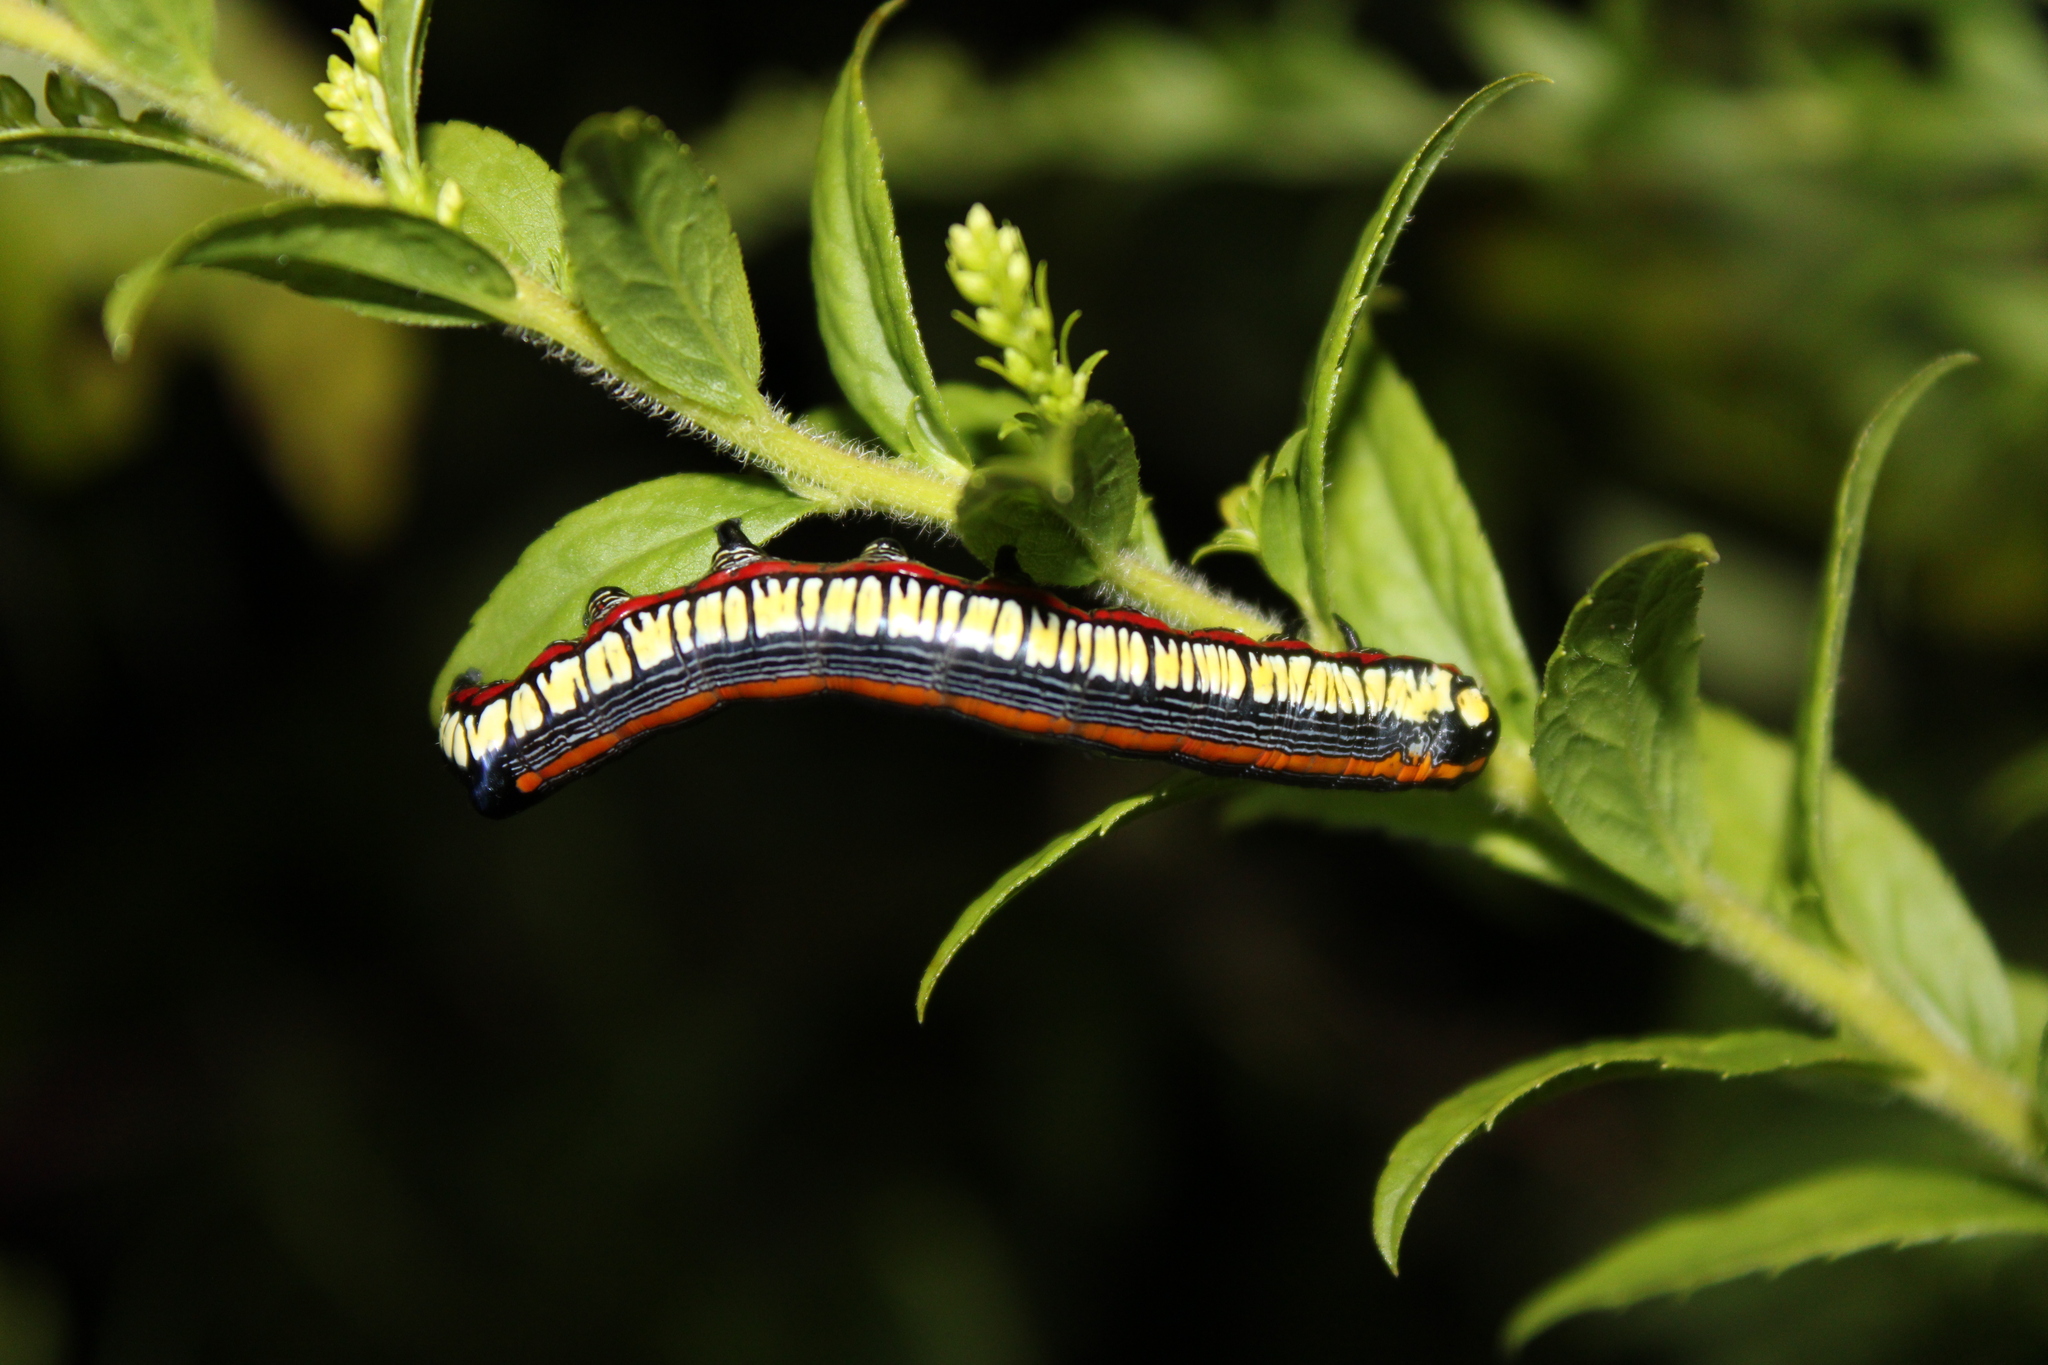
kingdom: Animalia
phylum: Arthropoda
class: Insecta
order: Lepidoptera
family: Noctuidae
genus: Cucullia
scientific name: Cucullia convexipennis
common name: Brown-hooded owlet
